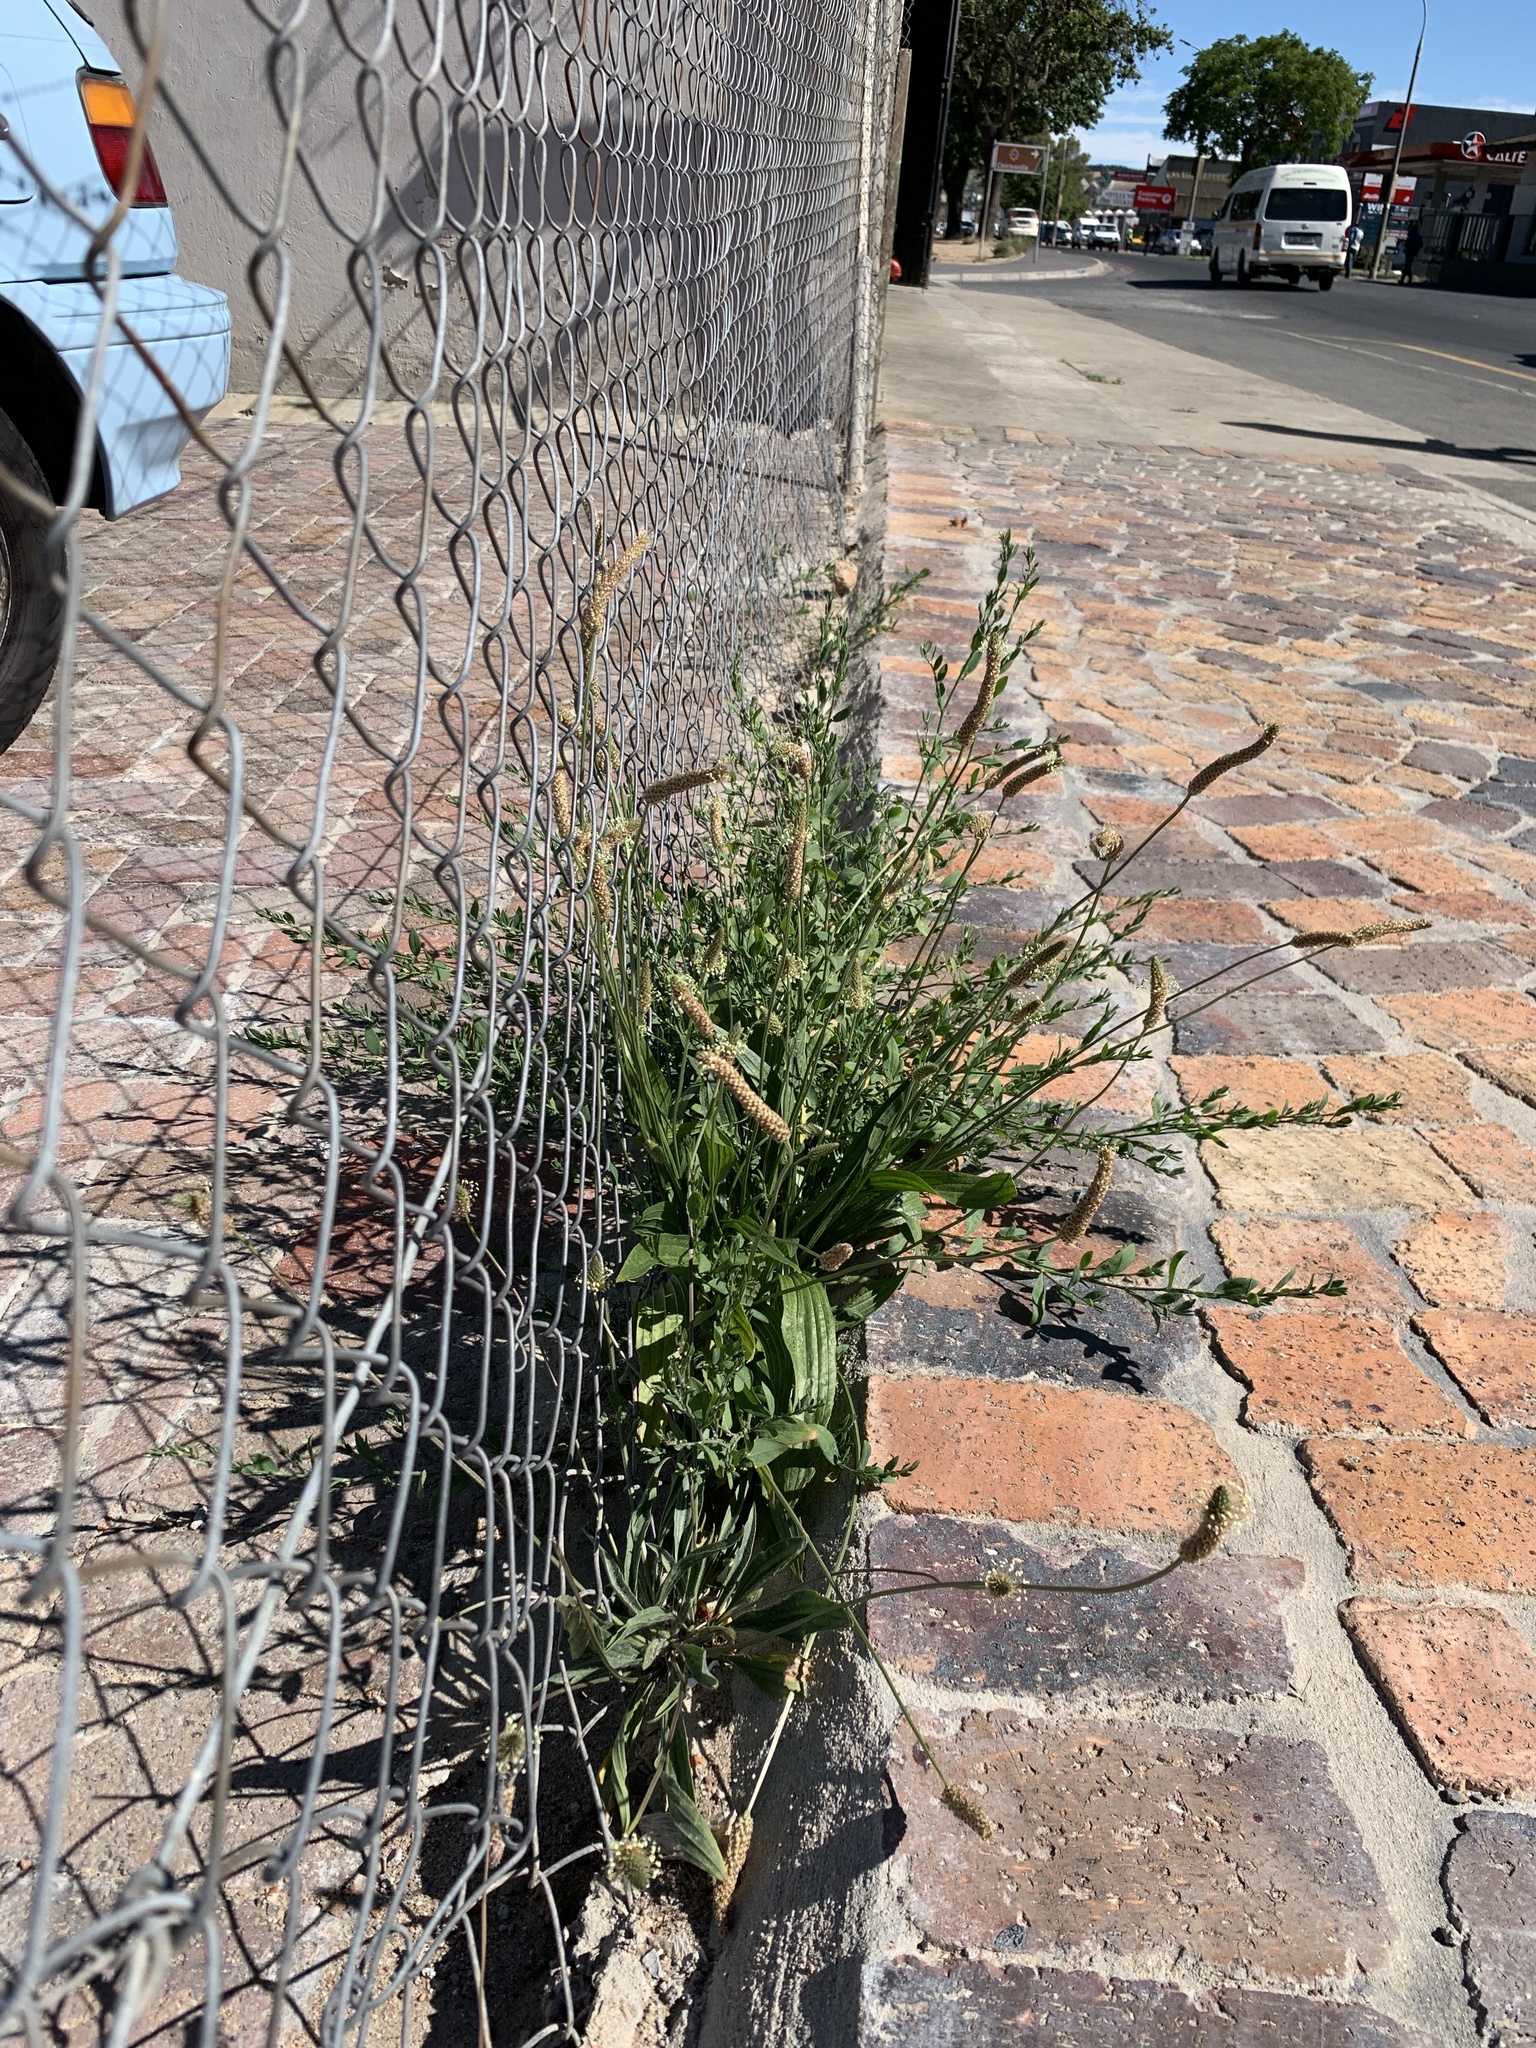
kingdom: Plantae
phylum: Tracheophyta
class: Magnoliopsida
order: Lamiales
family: Plantaginaceae
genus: Plantago
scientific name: Plantago lanceolata
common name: Ribwort plantain
